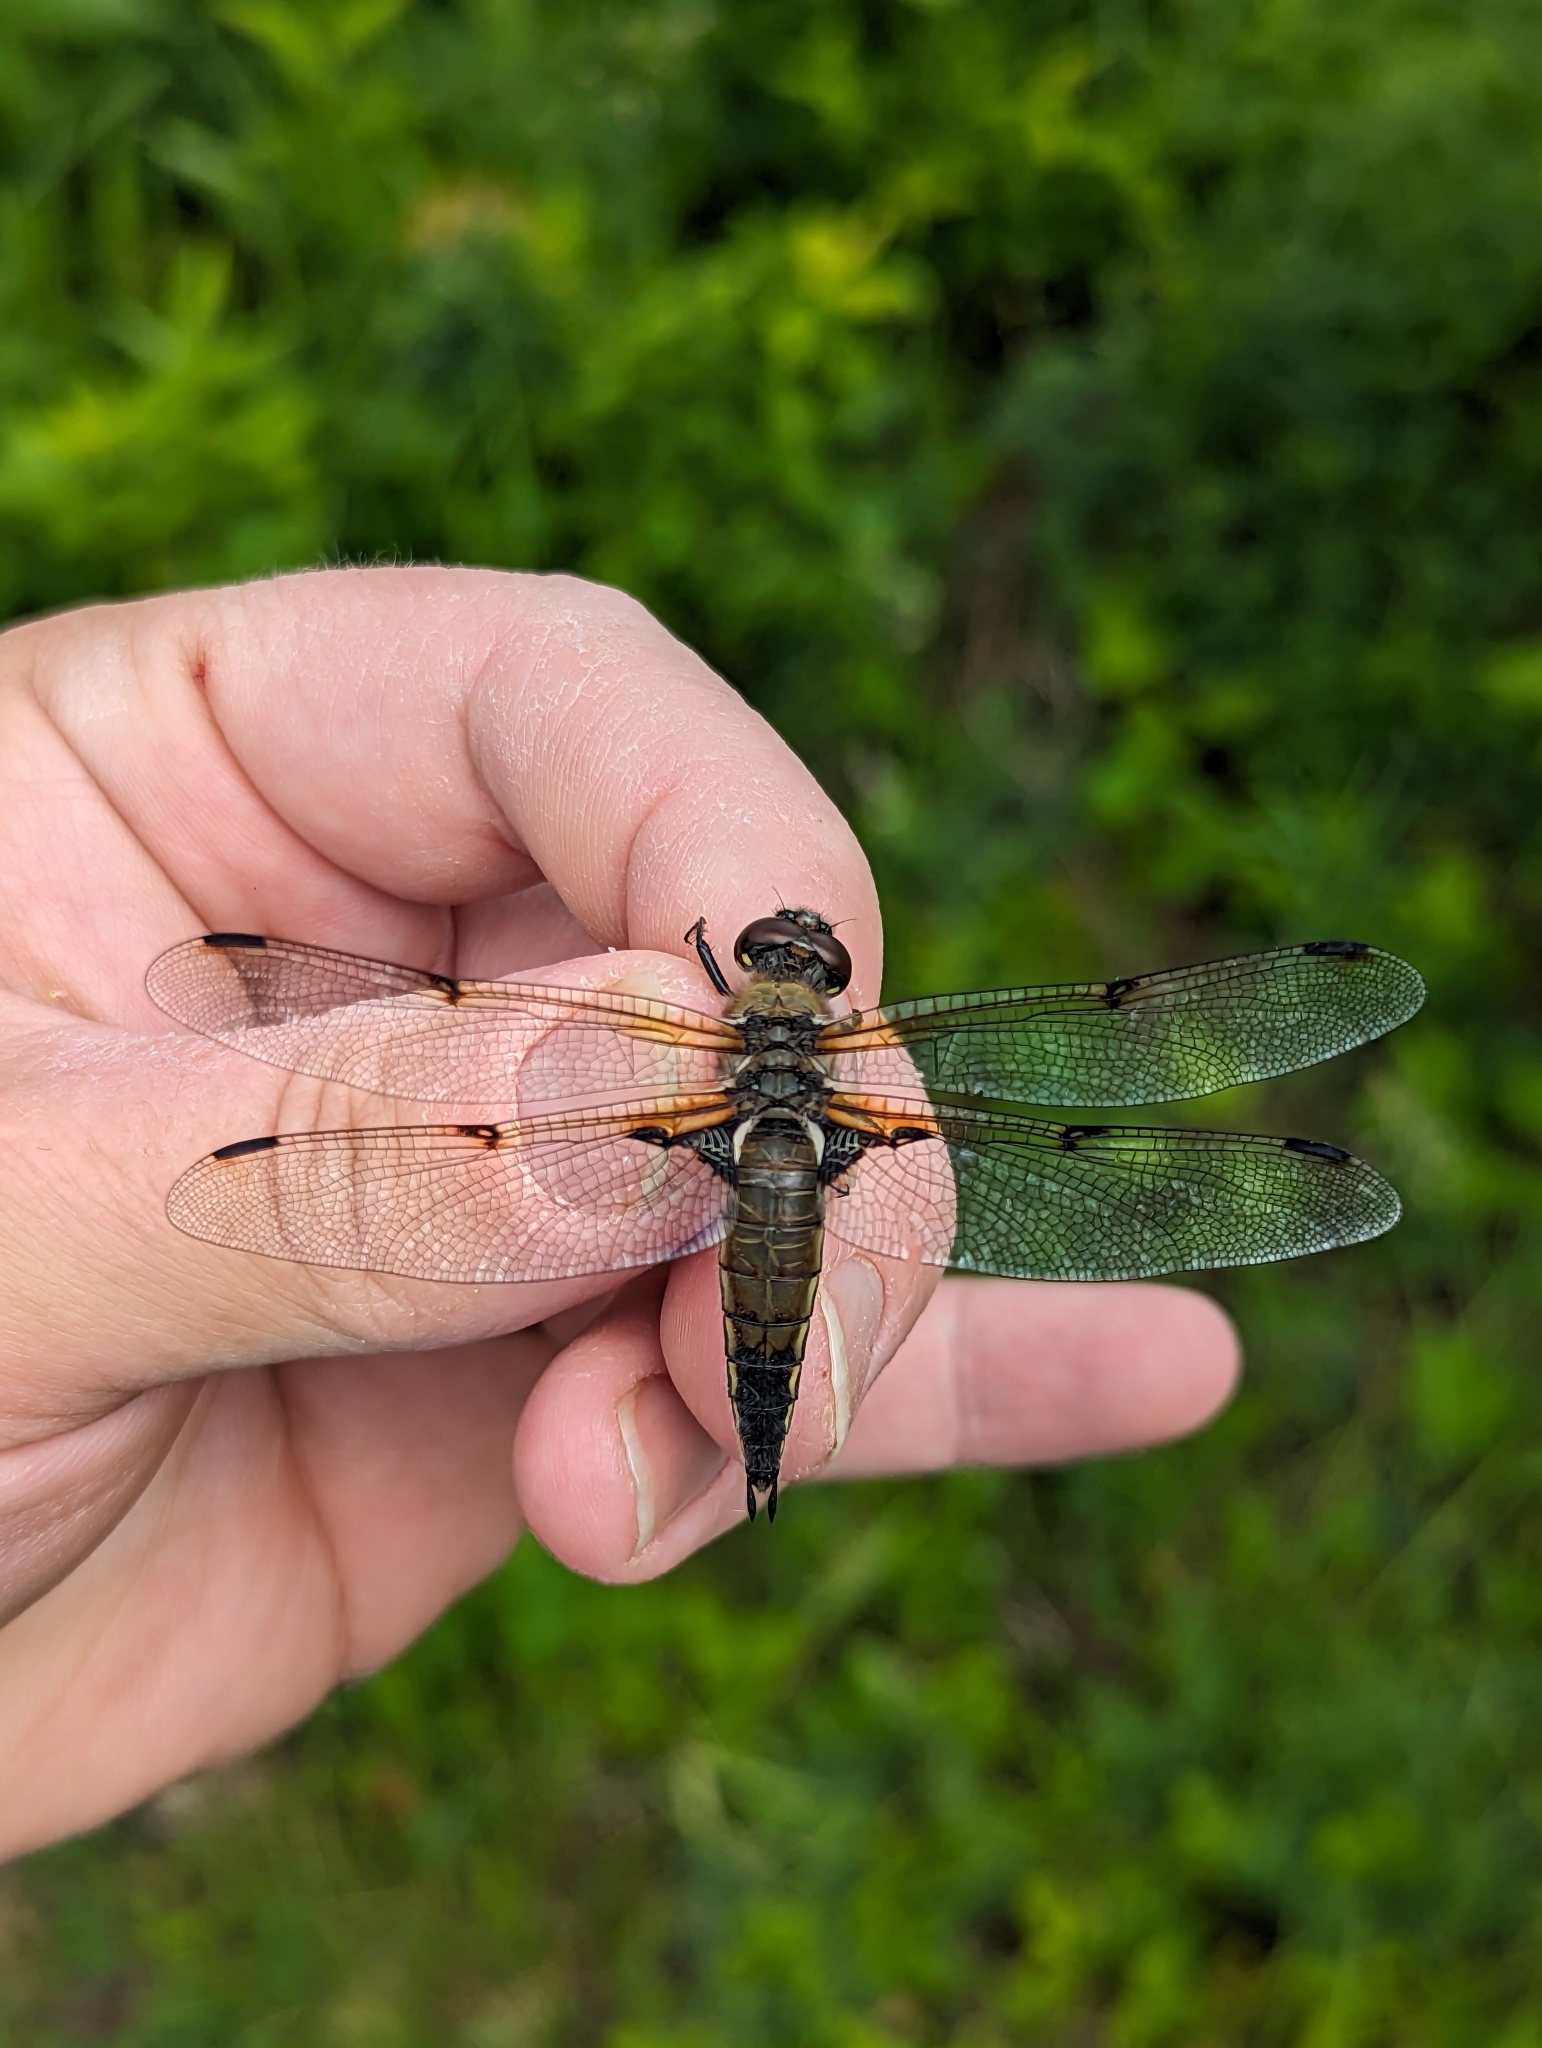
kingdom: Animalia
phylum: Arthropoda
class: Insecta
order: Odonata
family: Libellulidae
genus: Libellula
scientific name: Libellula quadrimaculata
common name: Four-spotted chaser
